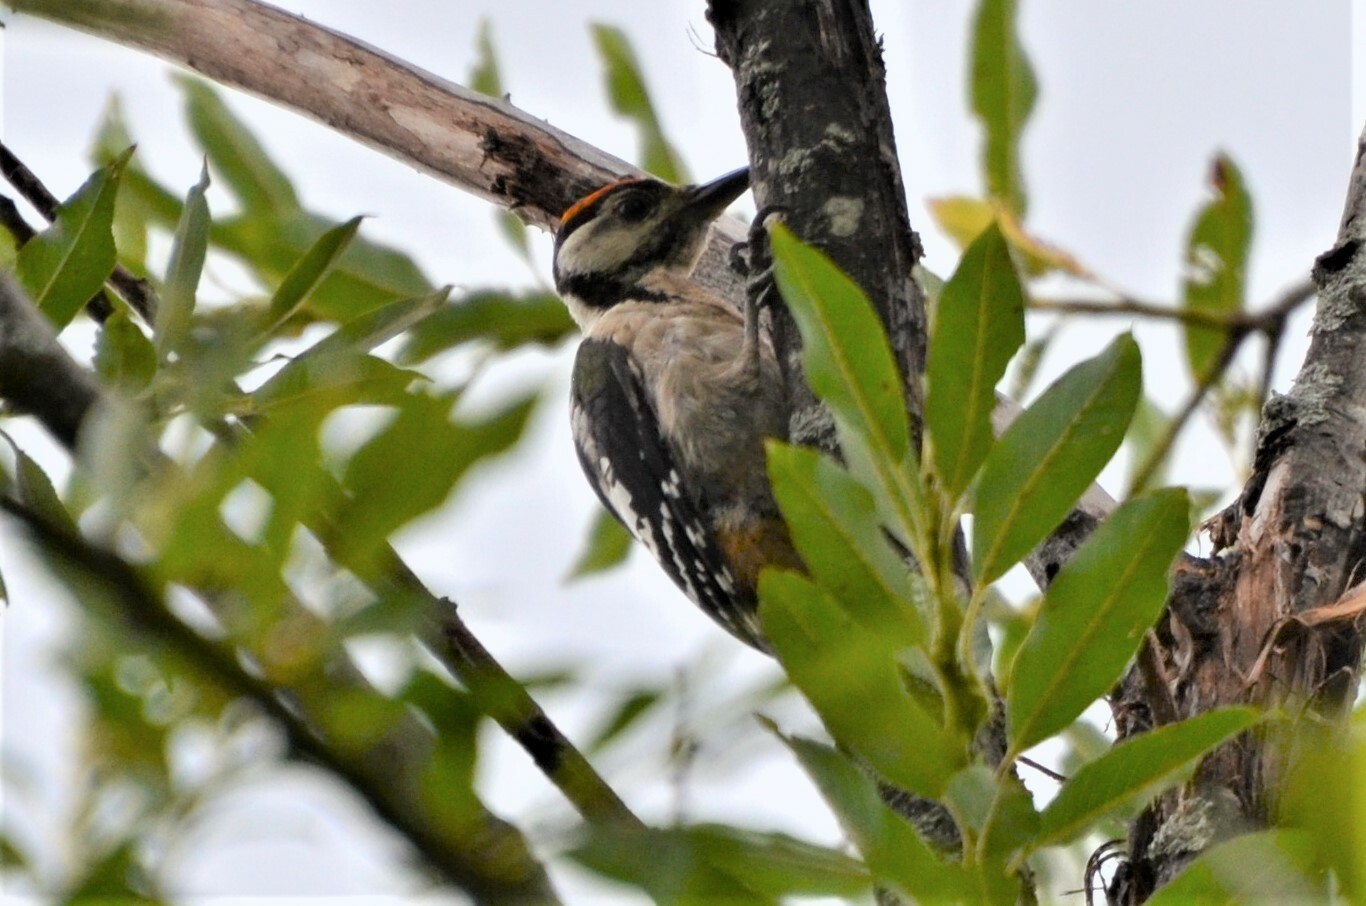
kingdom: Animalia
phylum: Chordata
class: Aves
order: Piciformes
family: Picidae
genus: Dendrocopos
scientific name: Dendrocopos major
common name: Great spotted woodpecker
